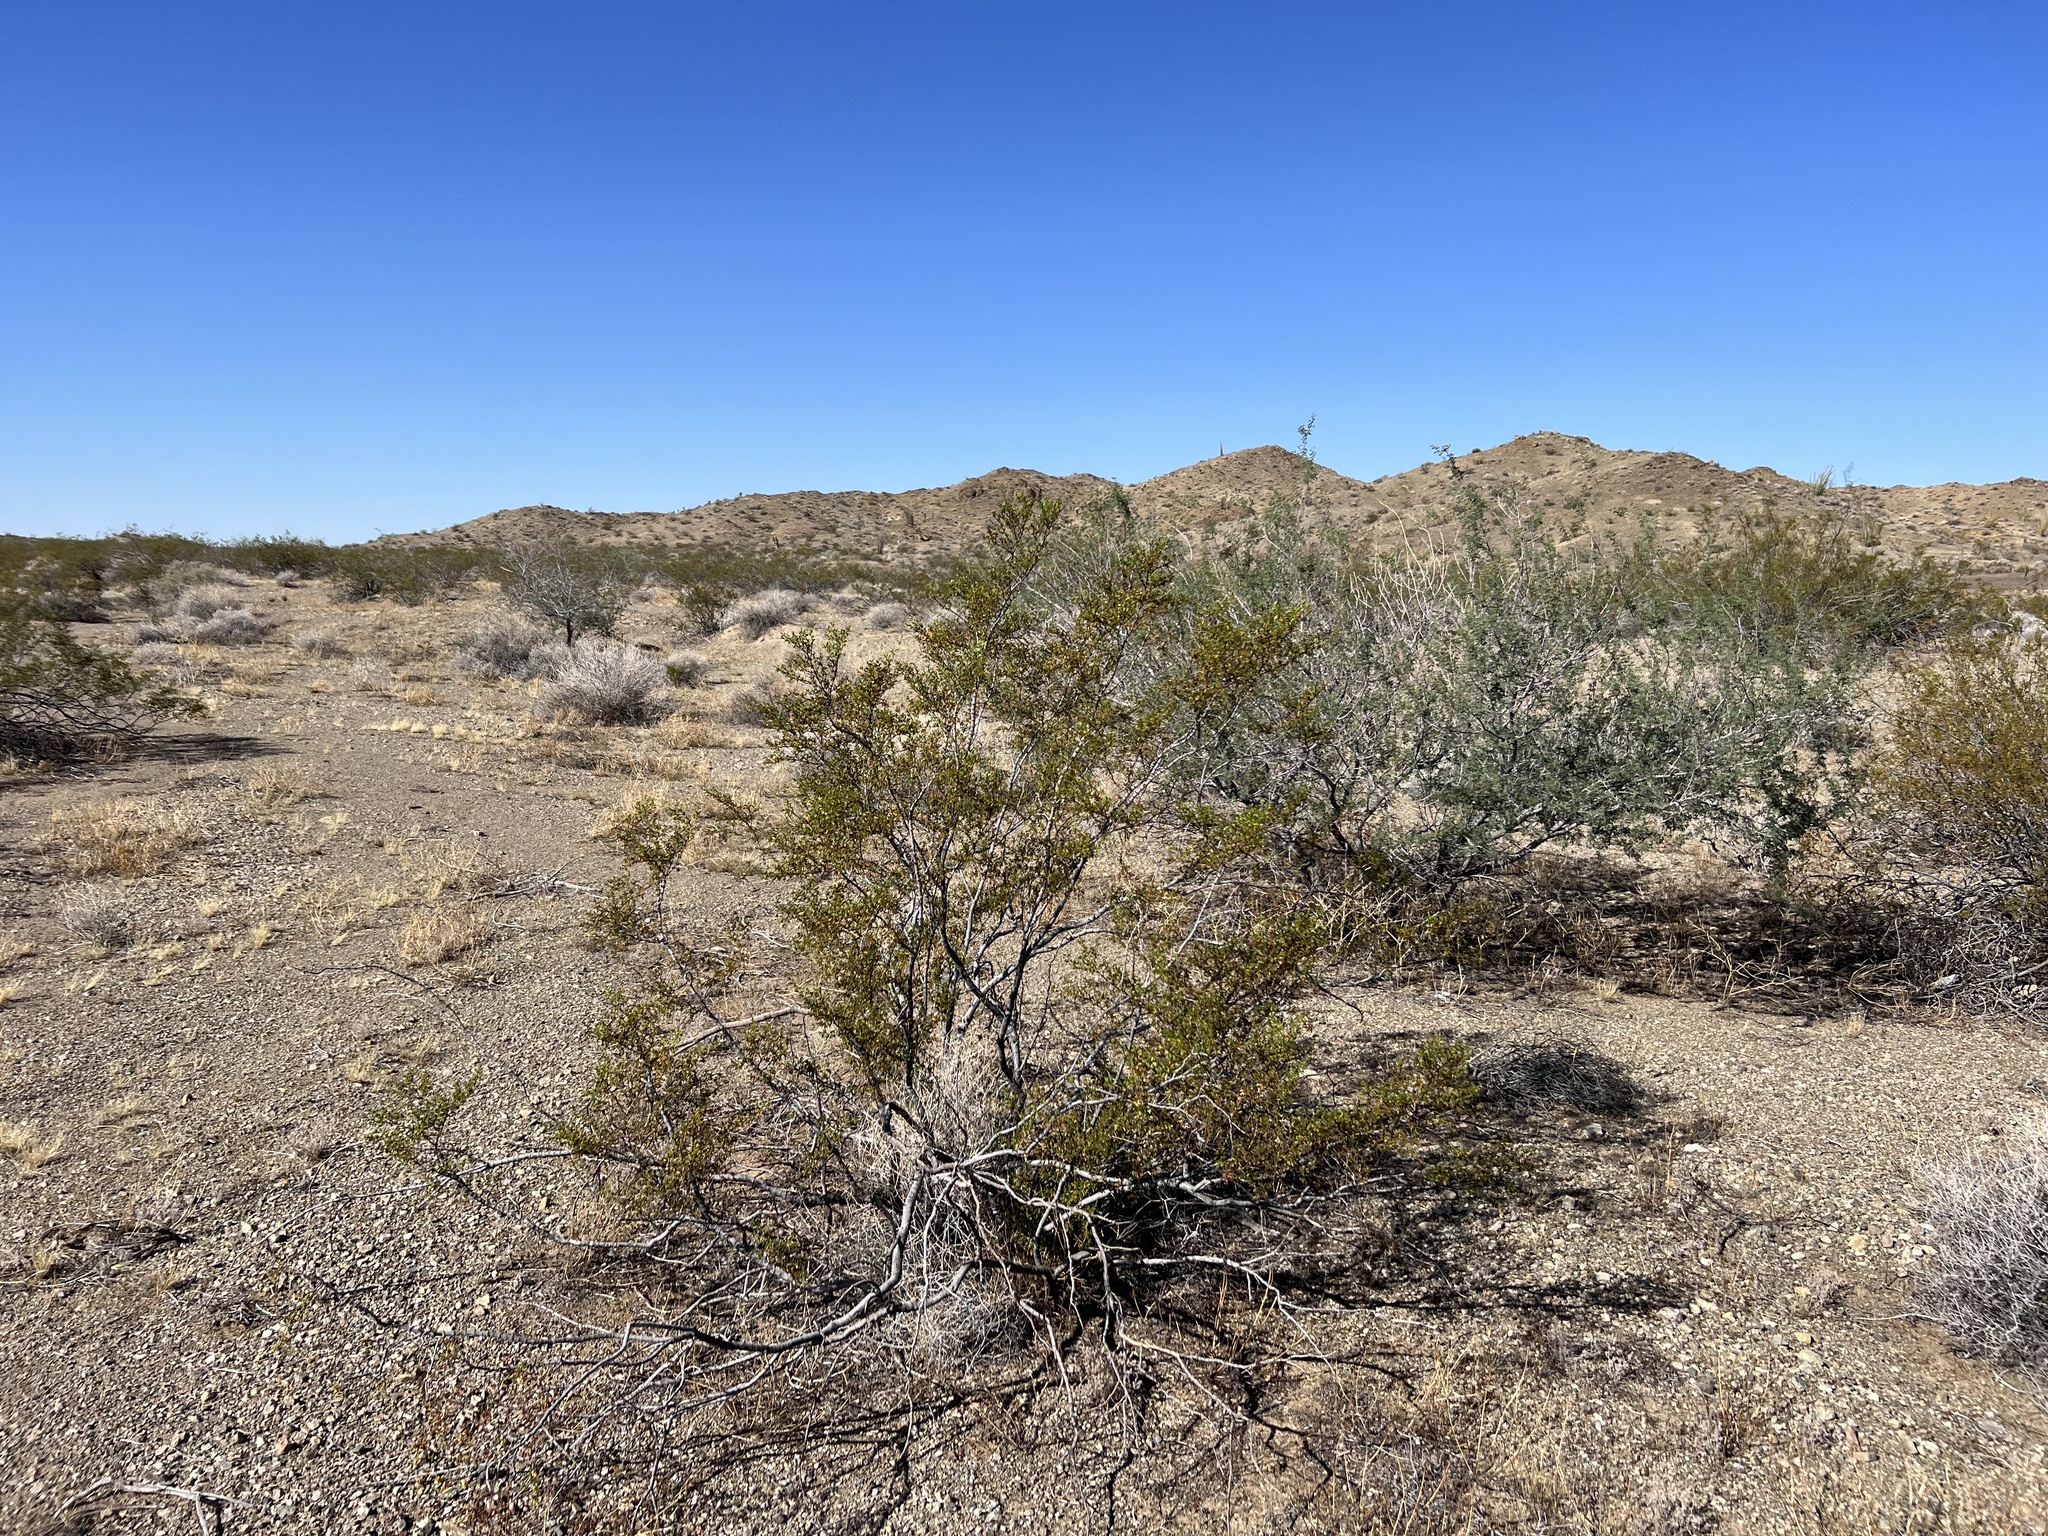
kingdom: Plantae
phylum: Tracheophyta
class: Magnoliopsida
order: Zygophyllales
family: Zygophyllaceae
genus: Larrea
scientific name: Larrea tridentata
